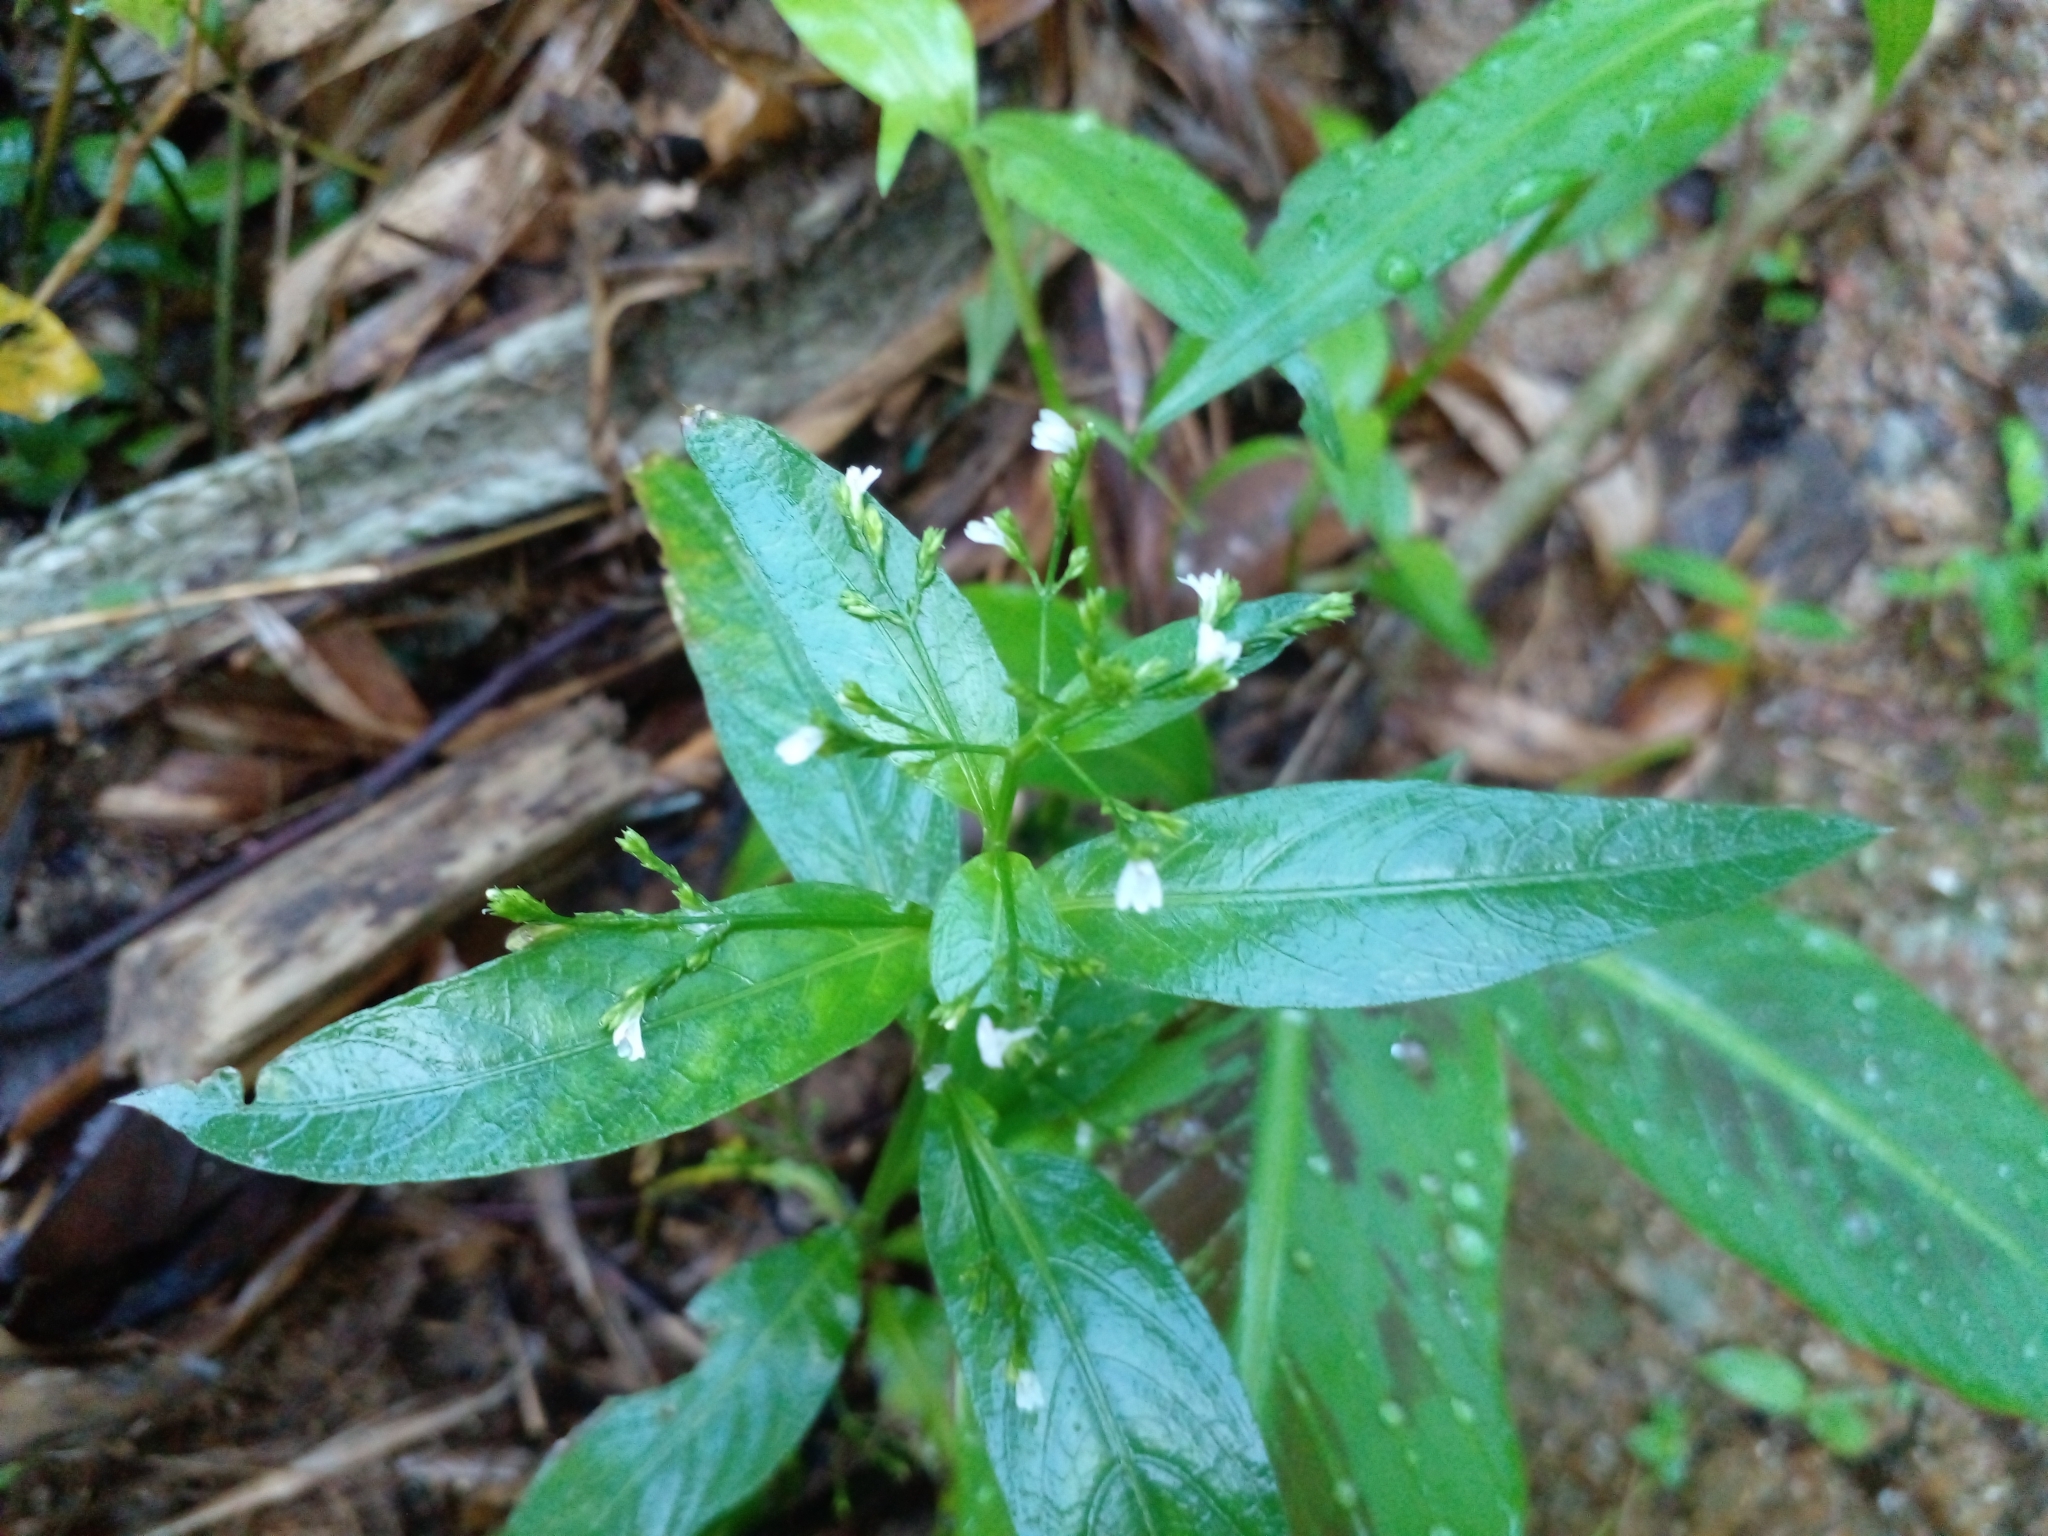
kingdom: Plantae
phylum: Tracheophyta
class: Magnoliopsida
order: Lamiales
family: Acanthaceae
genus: Andrographis
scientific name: Andrographis paniculata
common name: Green chireta
